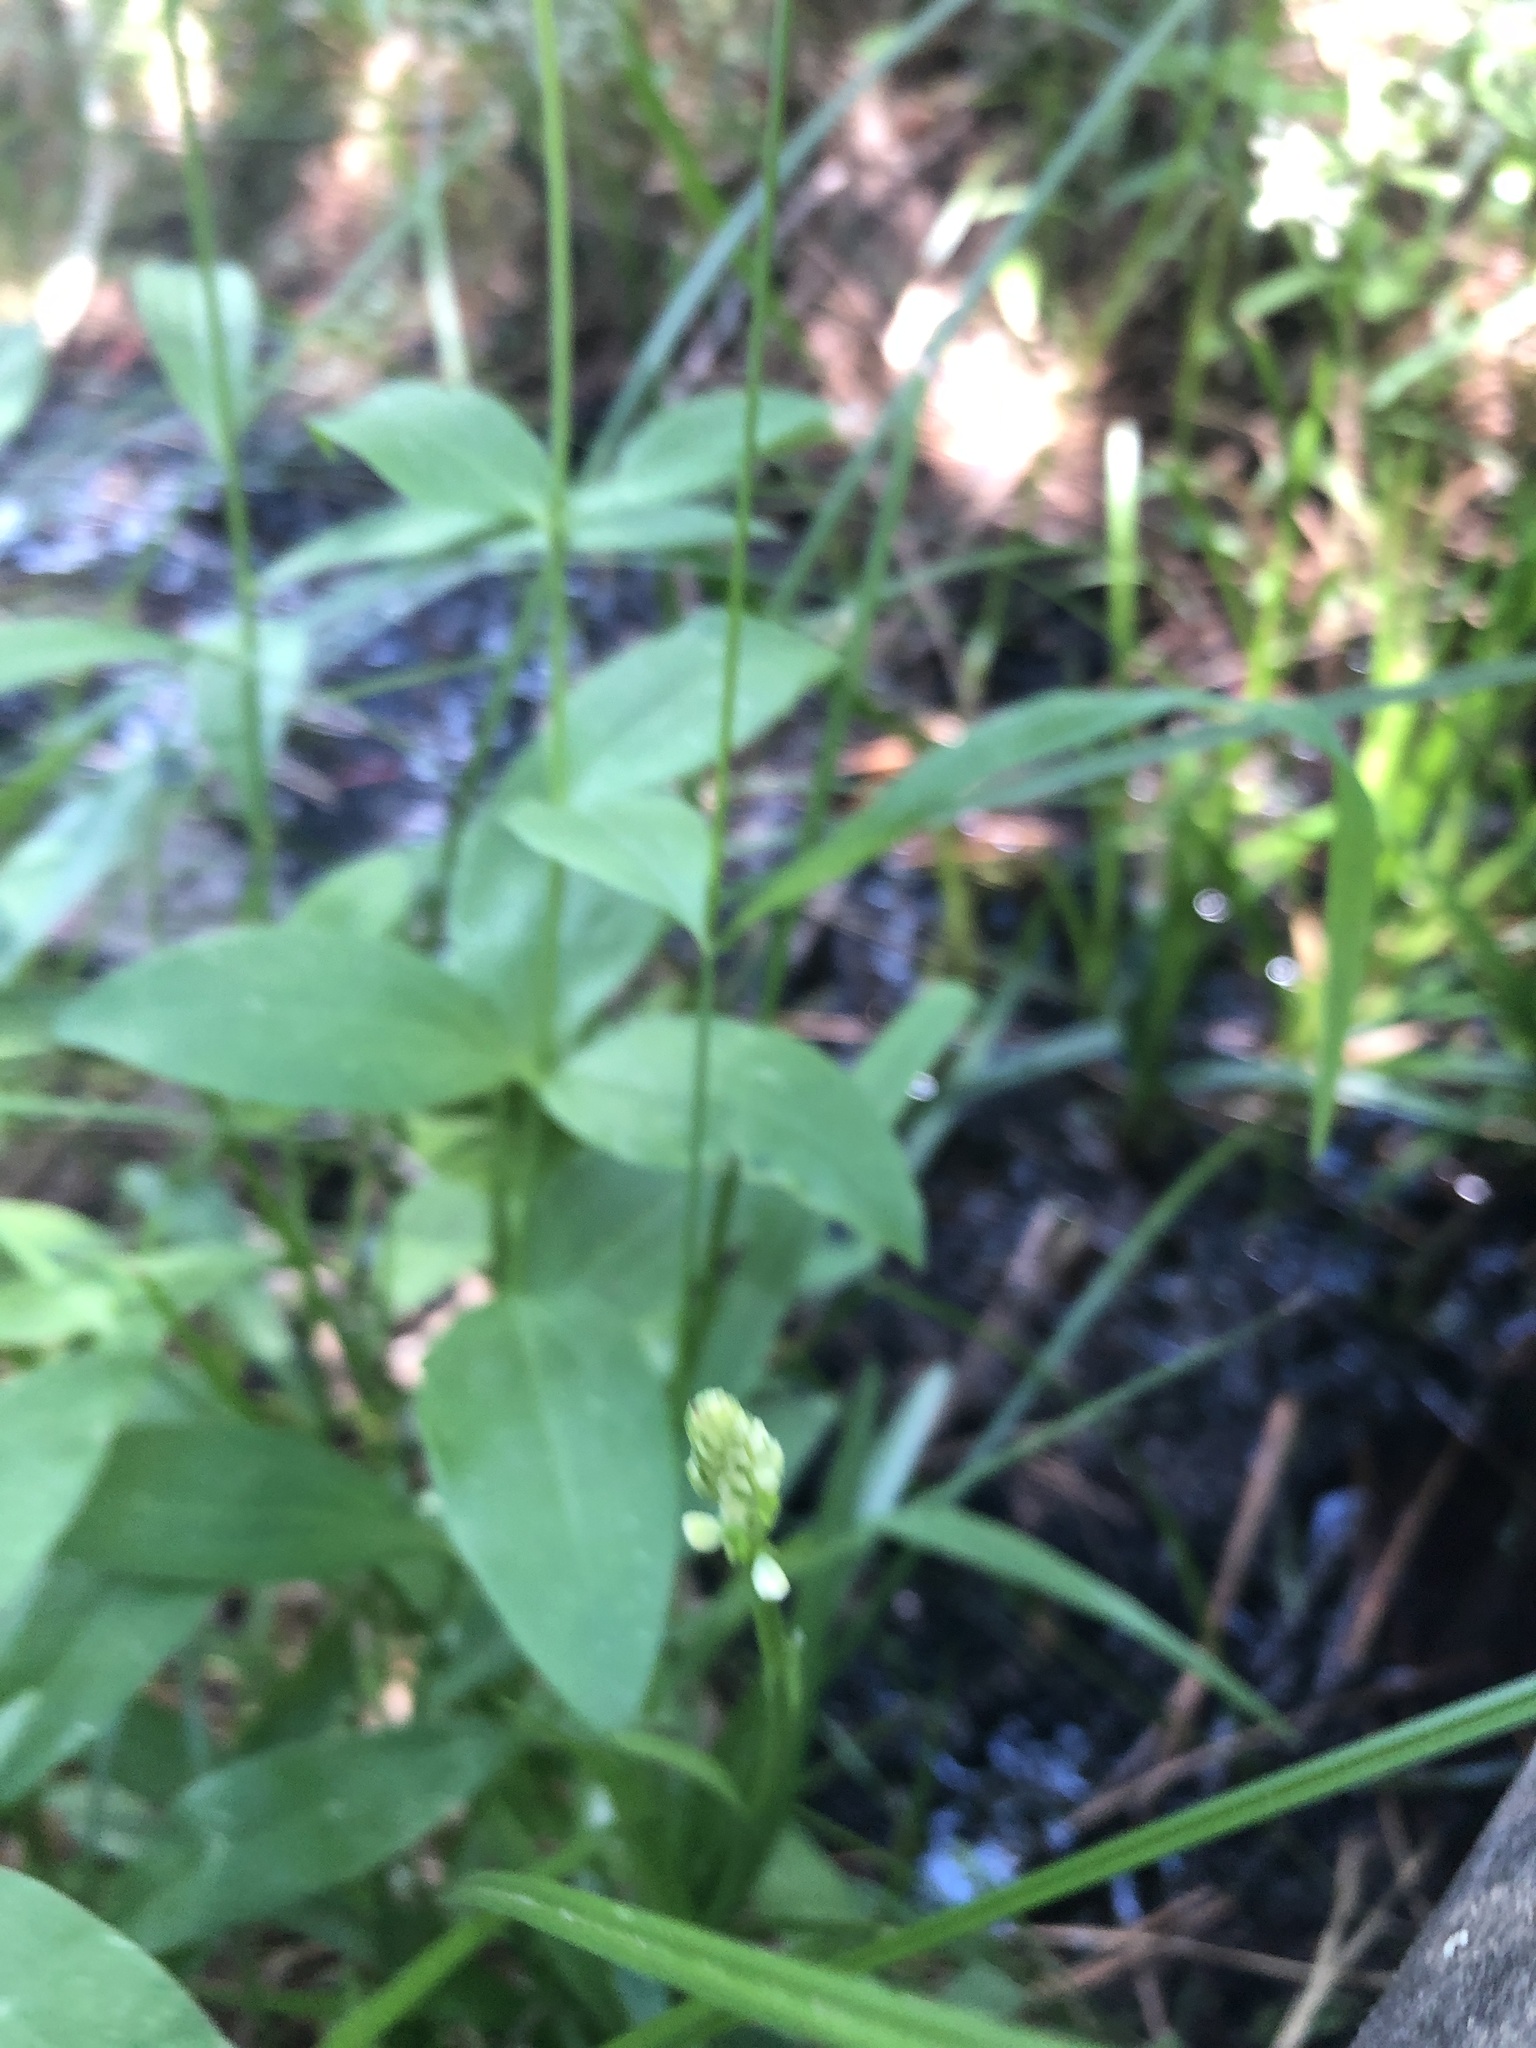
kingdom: Plantae
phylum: Tracheophyta
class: Liliopsida
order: Asparagales
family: Orchidaceae
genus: Platanthera
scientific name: Platanthera dilatata
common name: Bog candles
